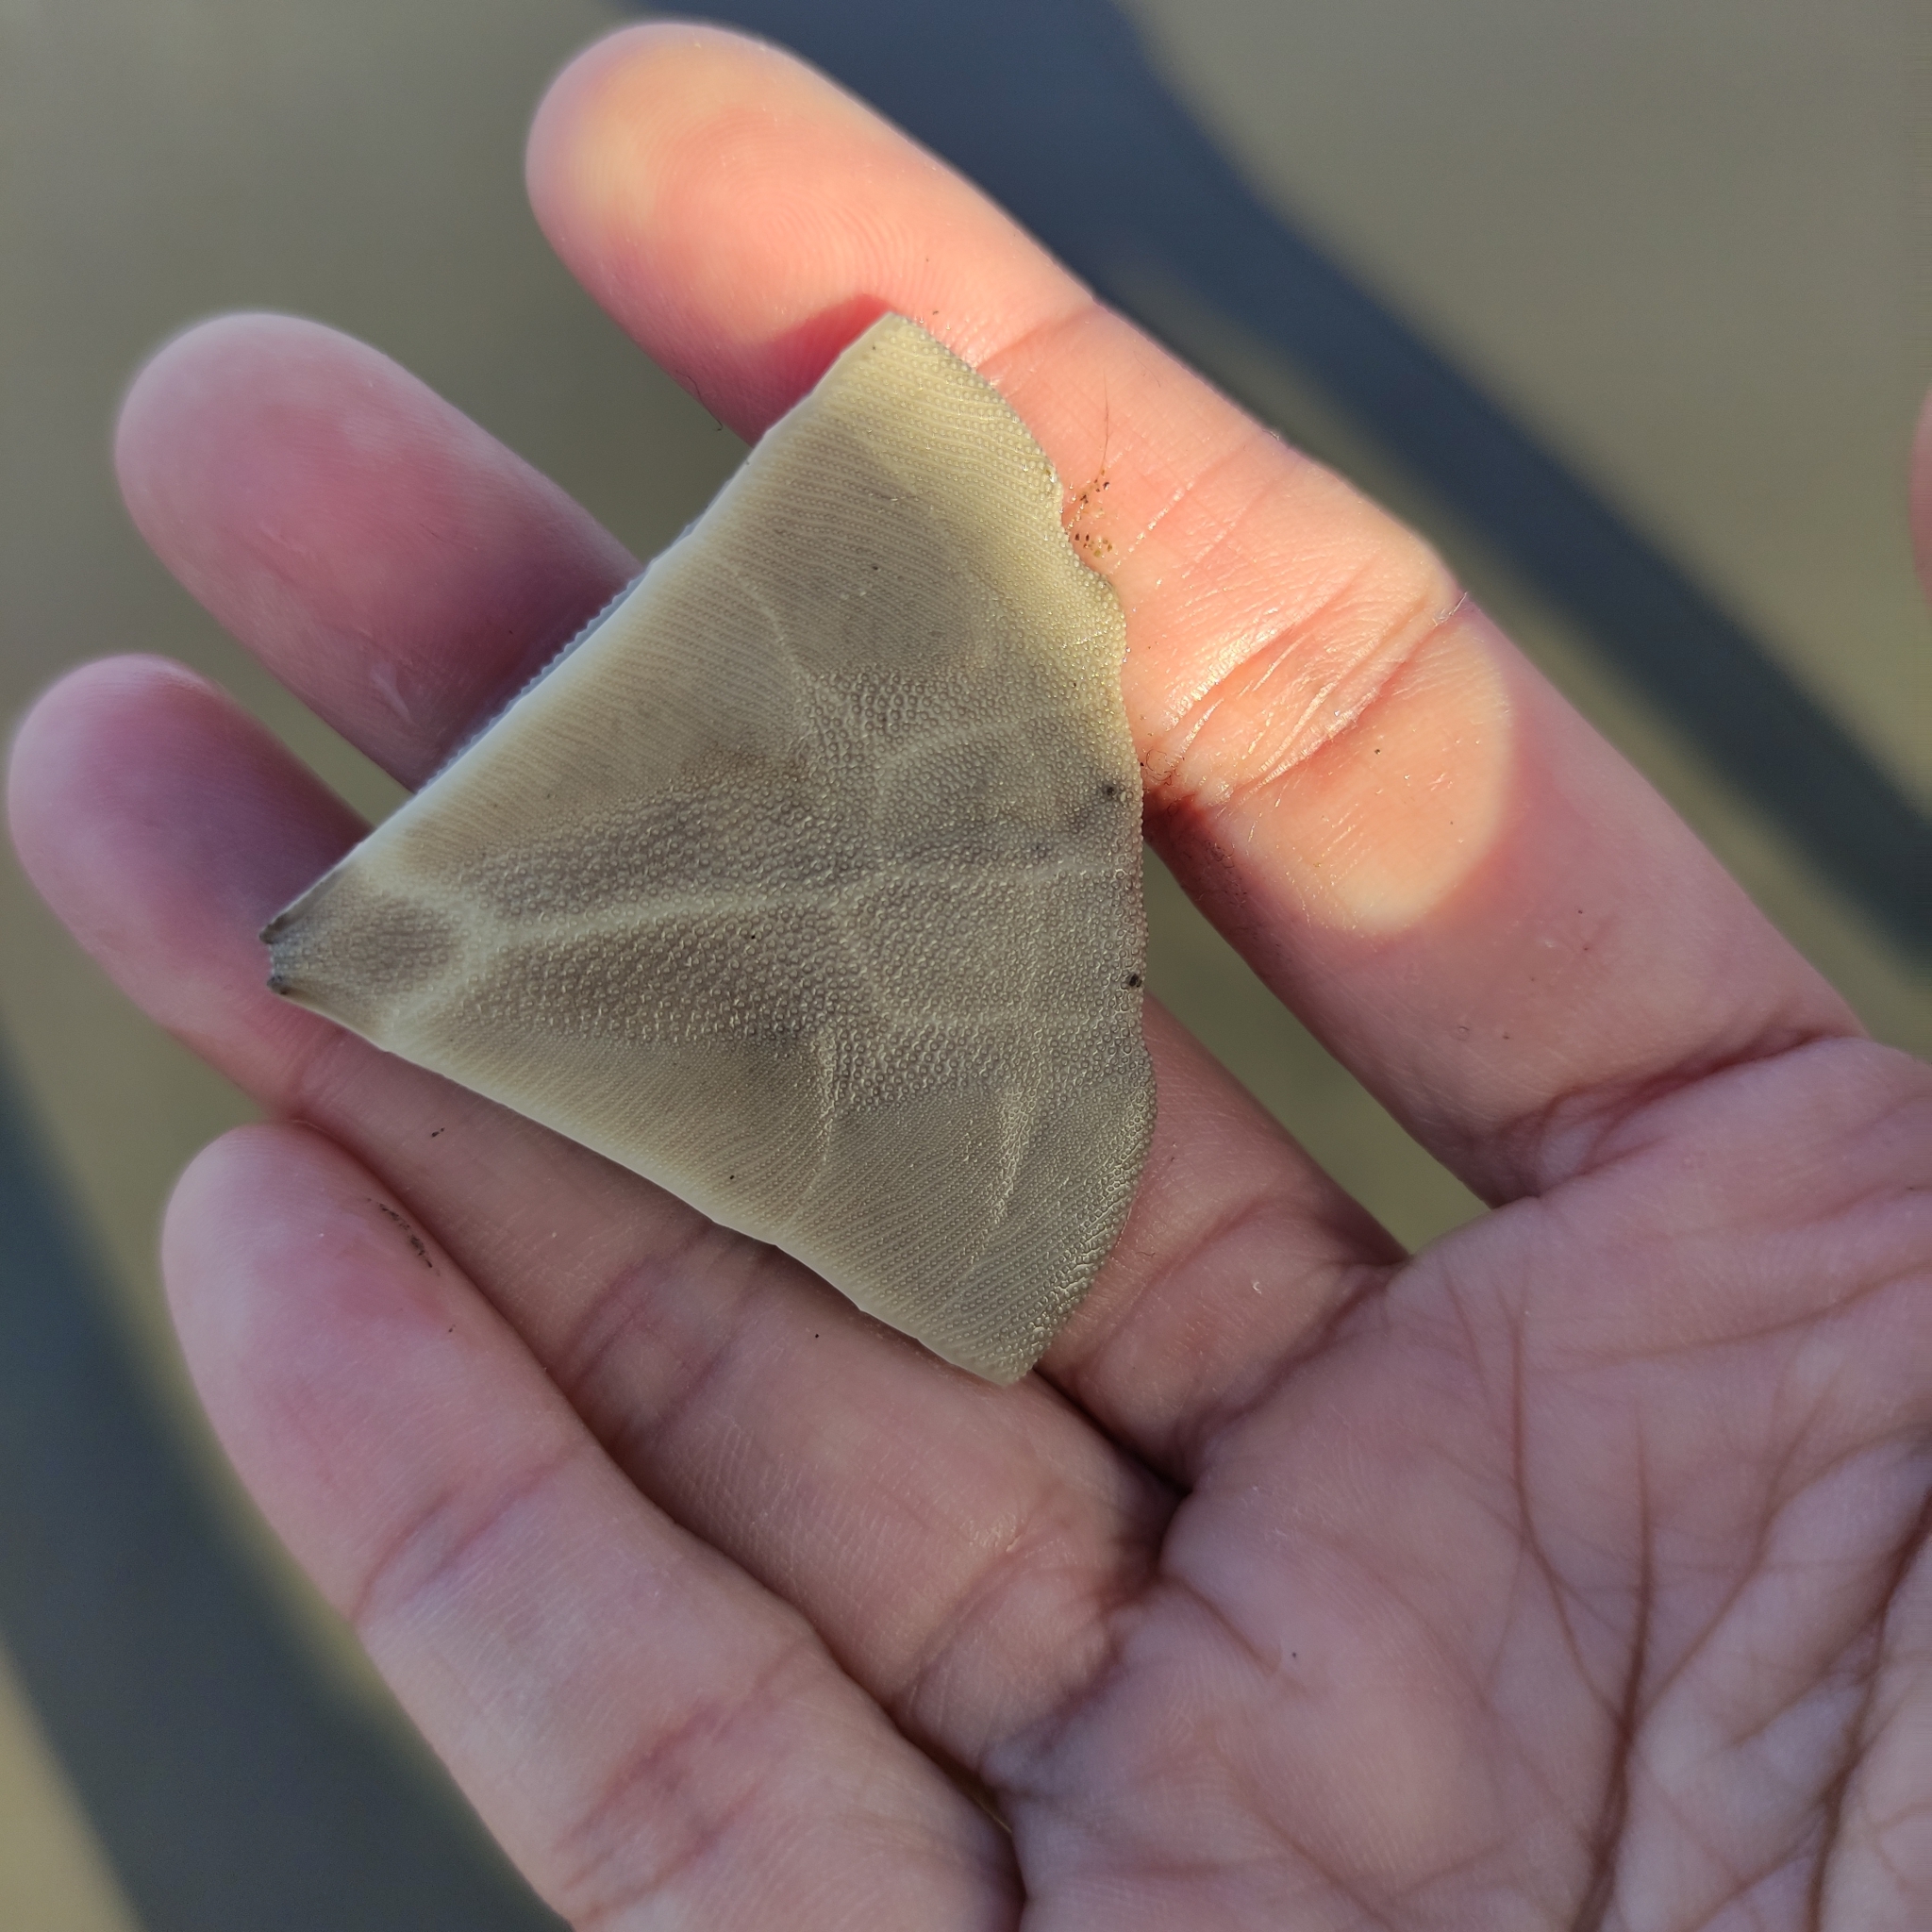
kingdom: Animalia
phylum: Echinodermata
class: Echinoidea
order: Clypeasteroida
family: Clypeasteridae
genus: Fellaster
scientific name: Fellaster zelandiae
